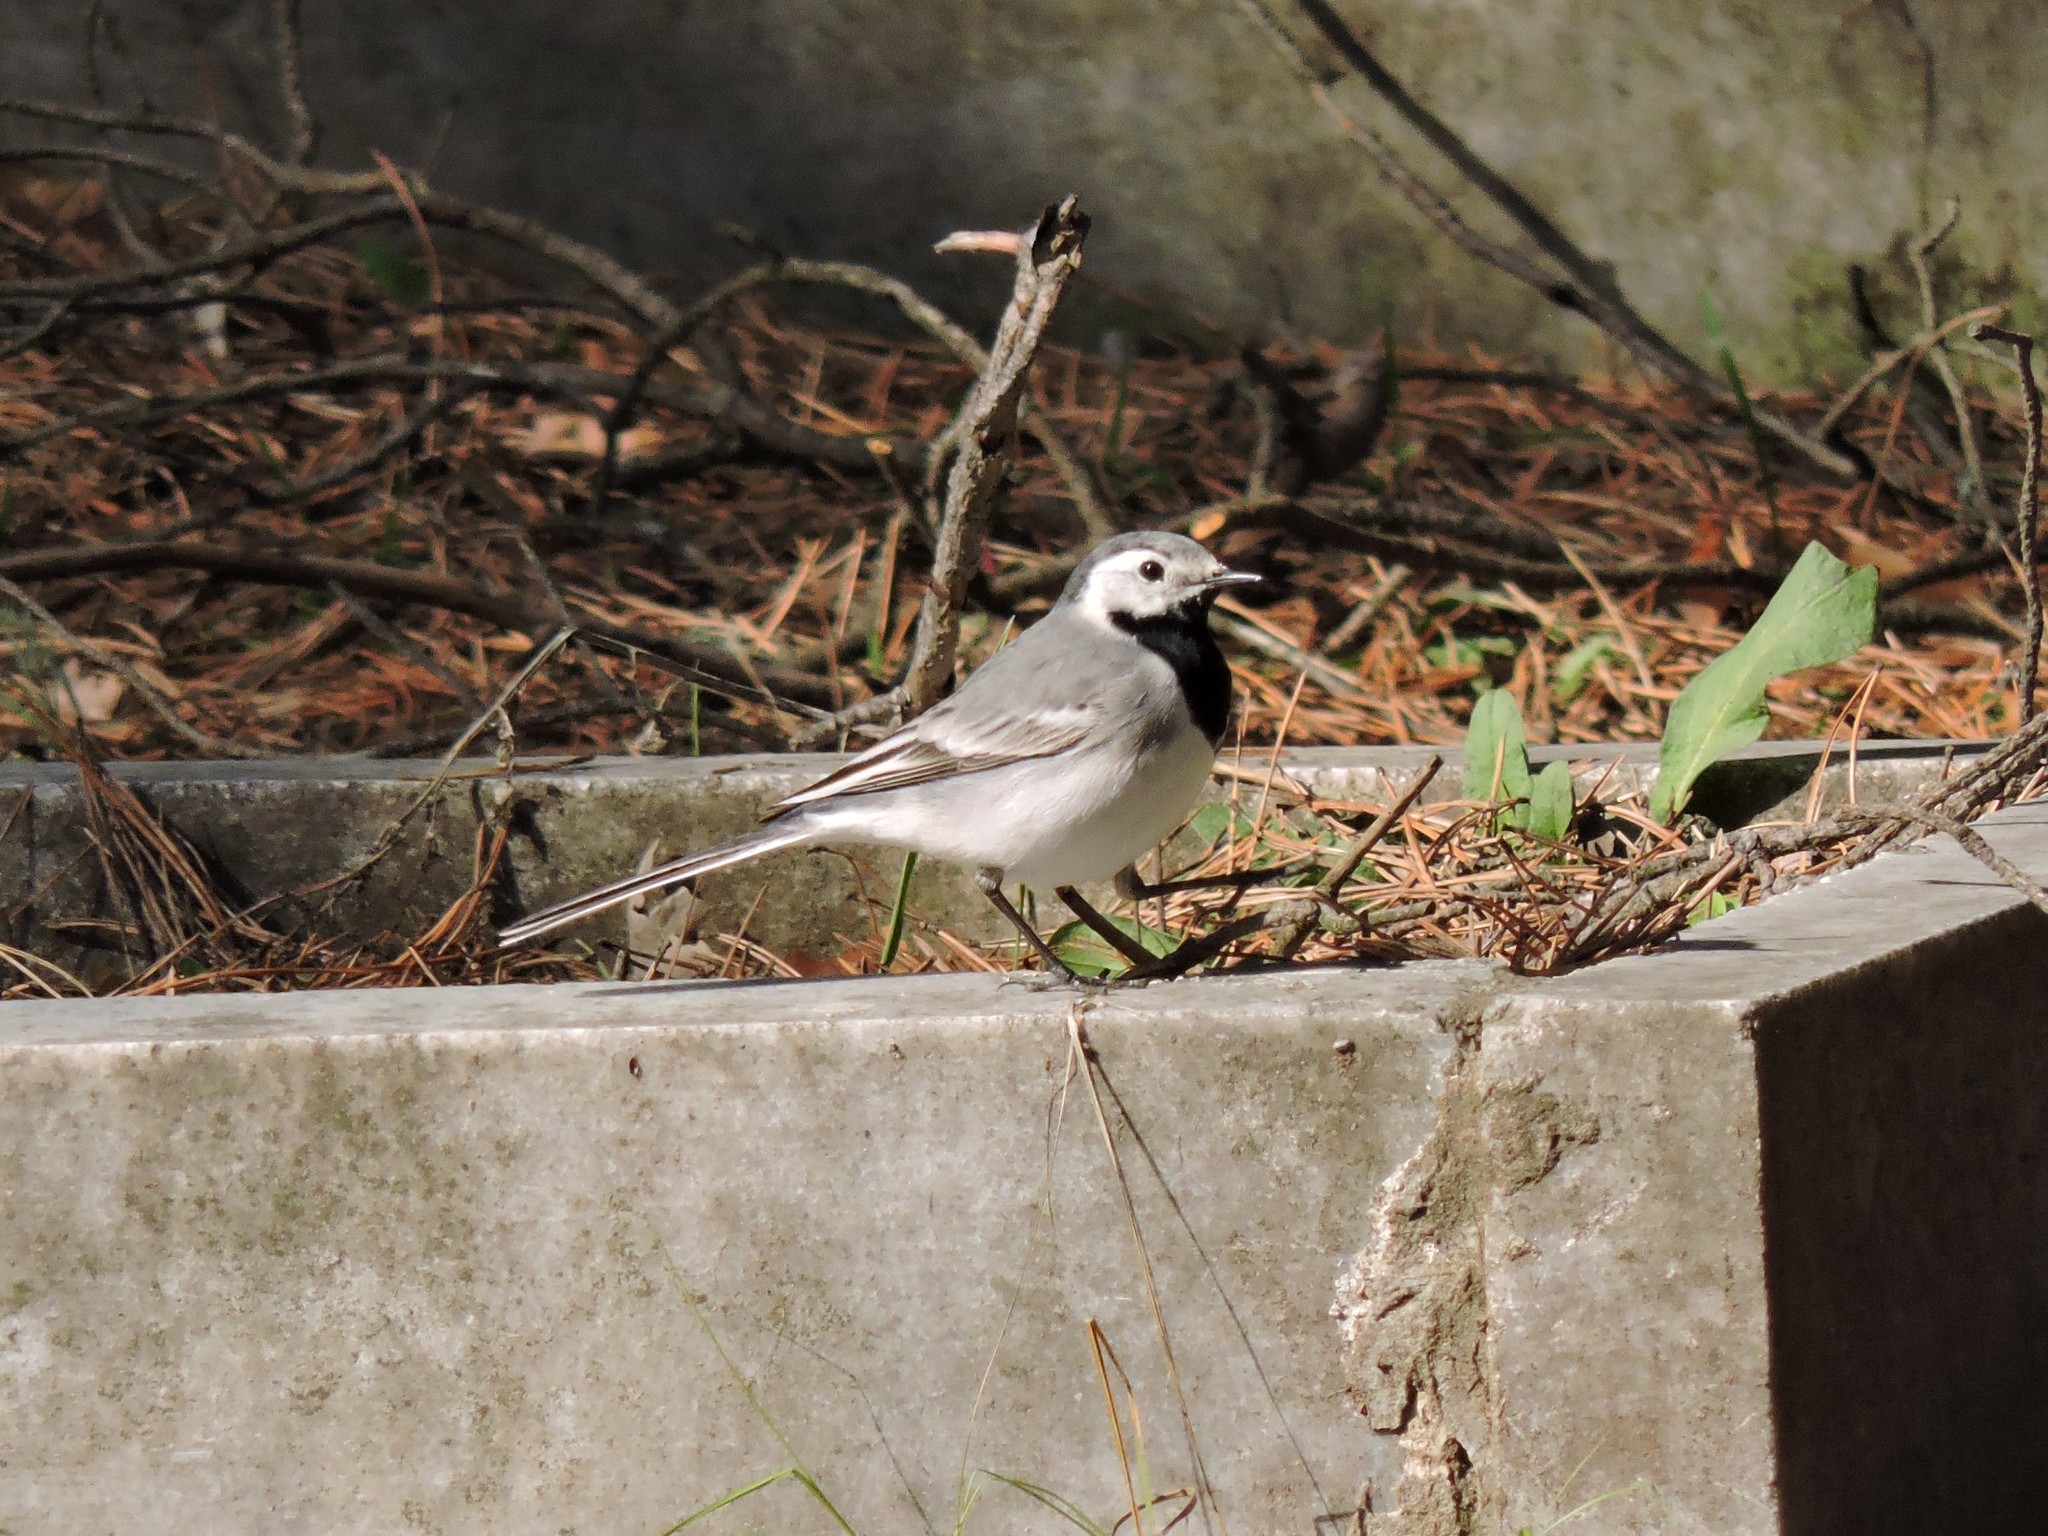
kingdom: Animalia
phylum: Chordata
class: Aves
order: Passeriformes
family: Motacillidae
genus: Motacilla
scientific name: Motacilla alba
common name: White wagtail
